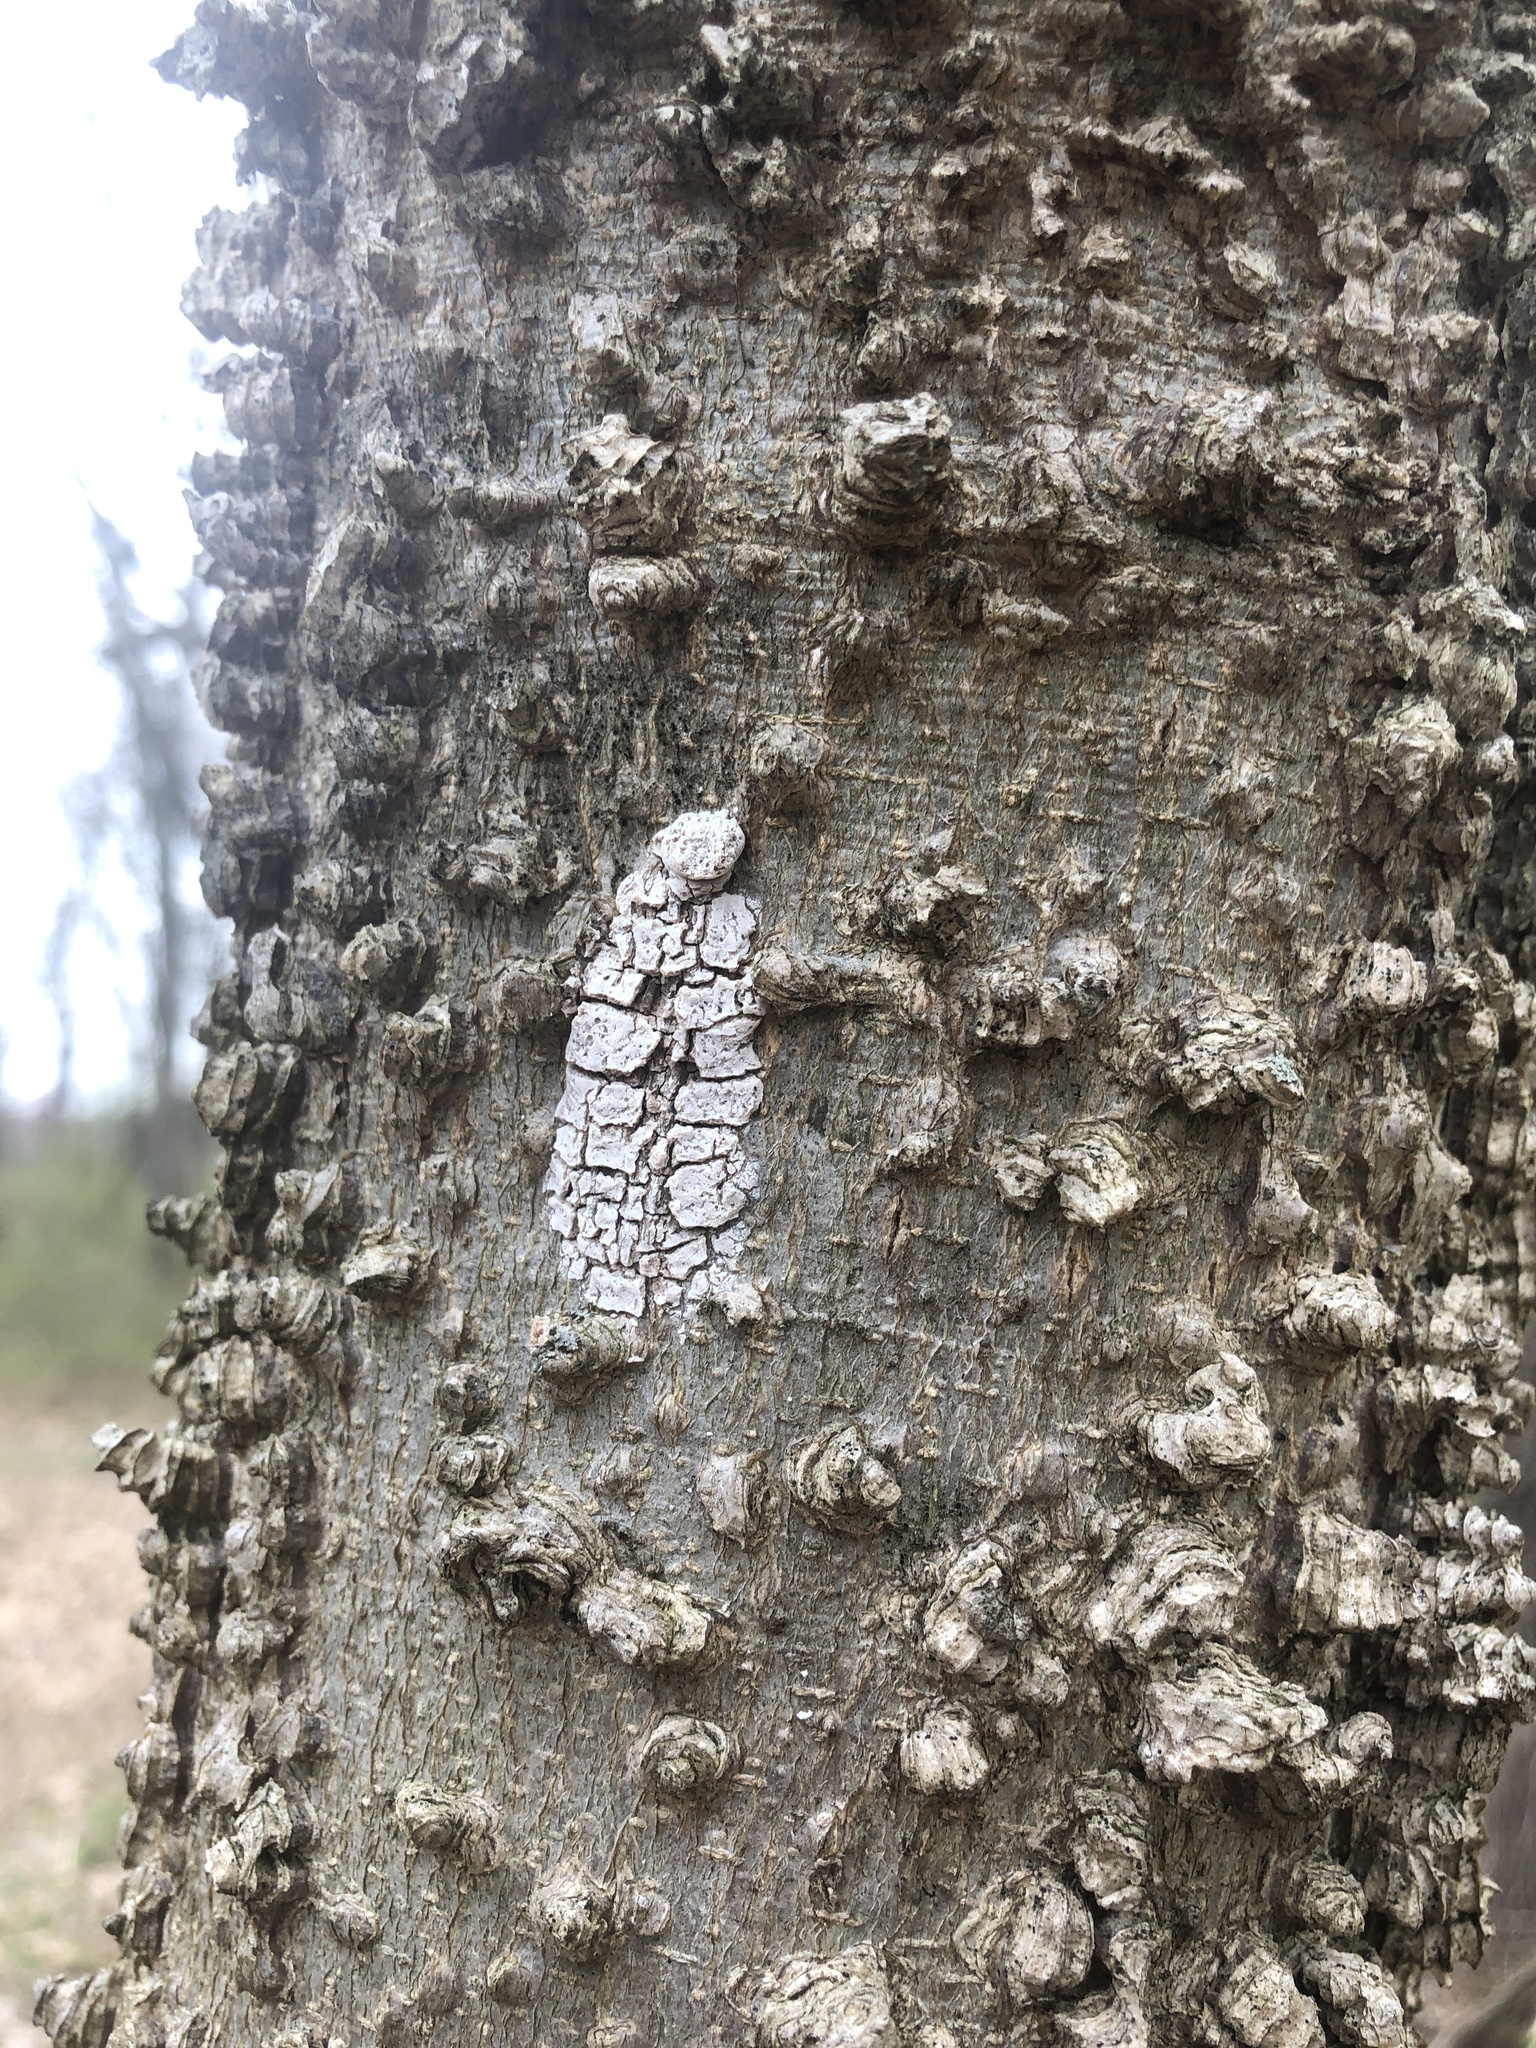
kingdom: Animalia
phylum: Arthropoda
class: Insecta
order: Hemiptera
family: Fulgoridae
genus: Lycorma
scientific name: Lycorma delicatula
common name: Spotted lanternfly
